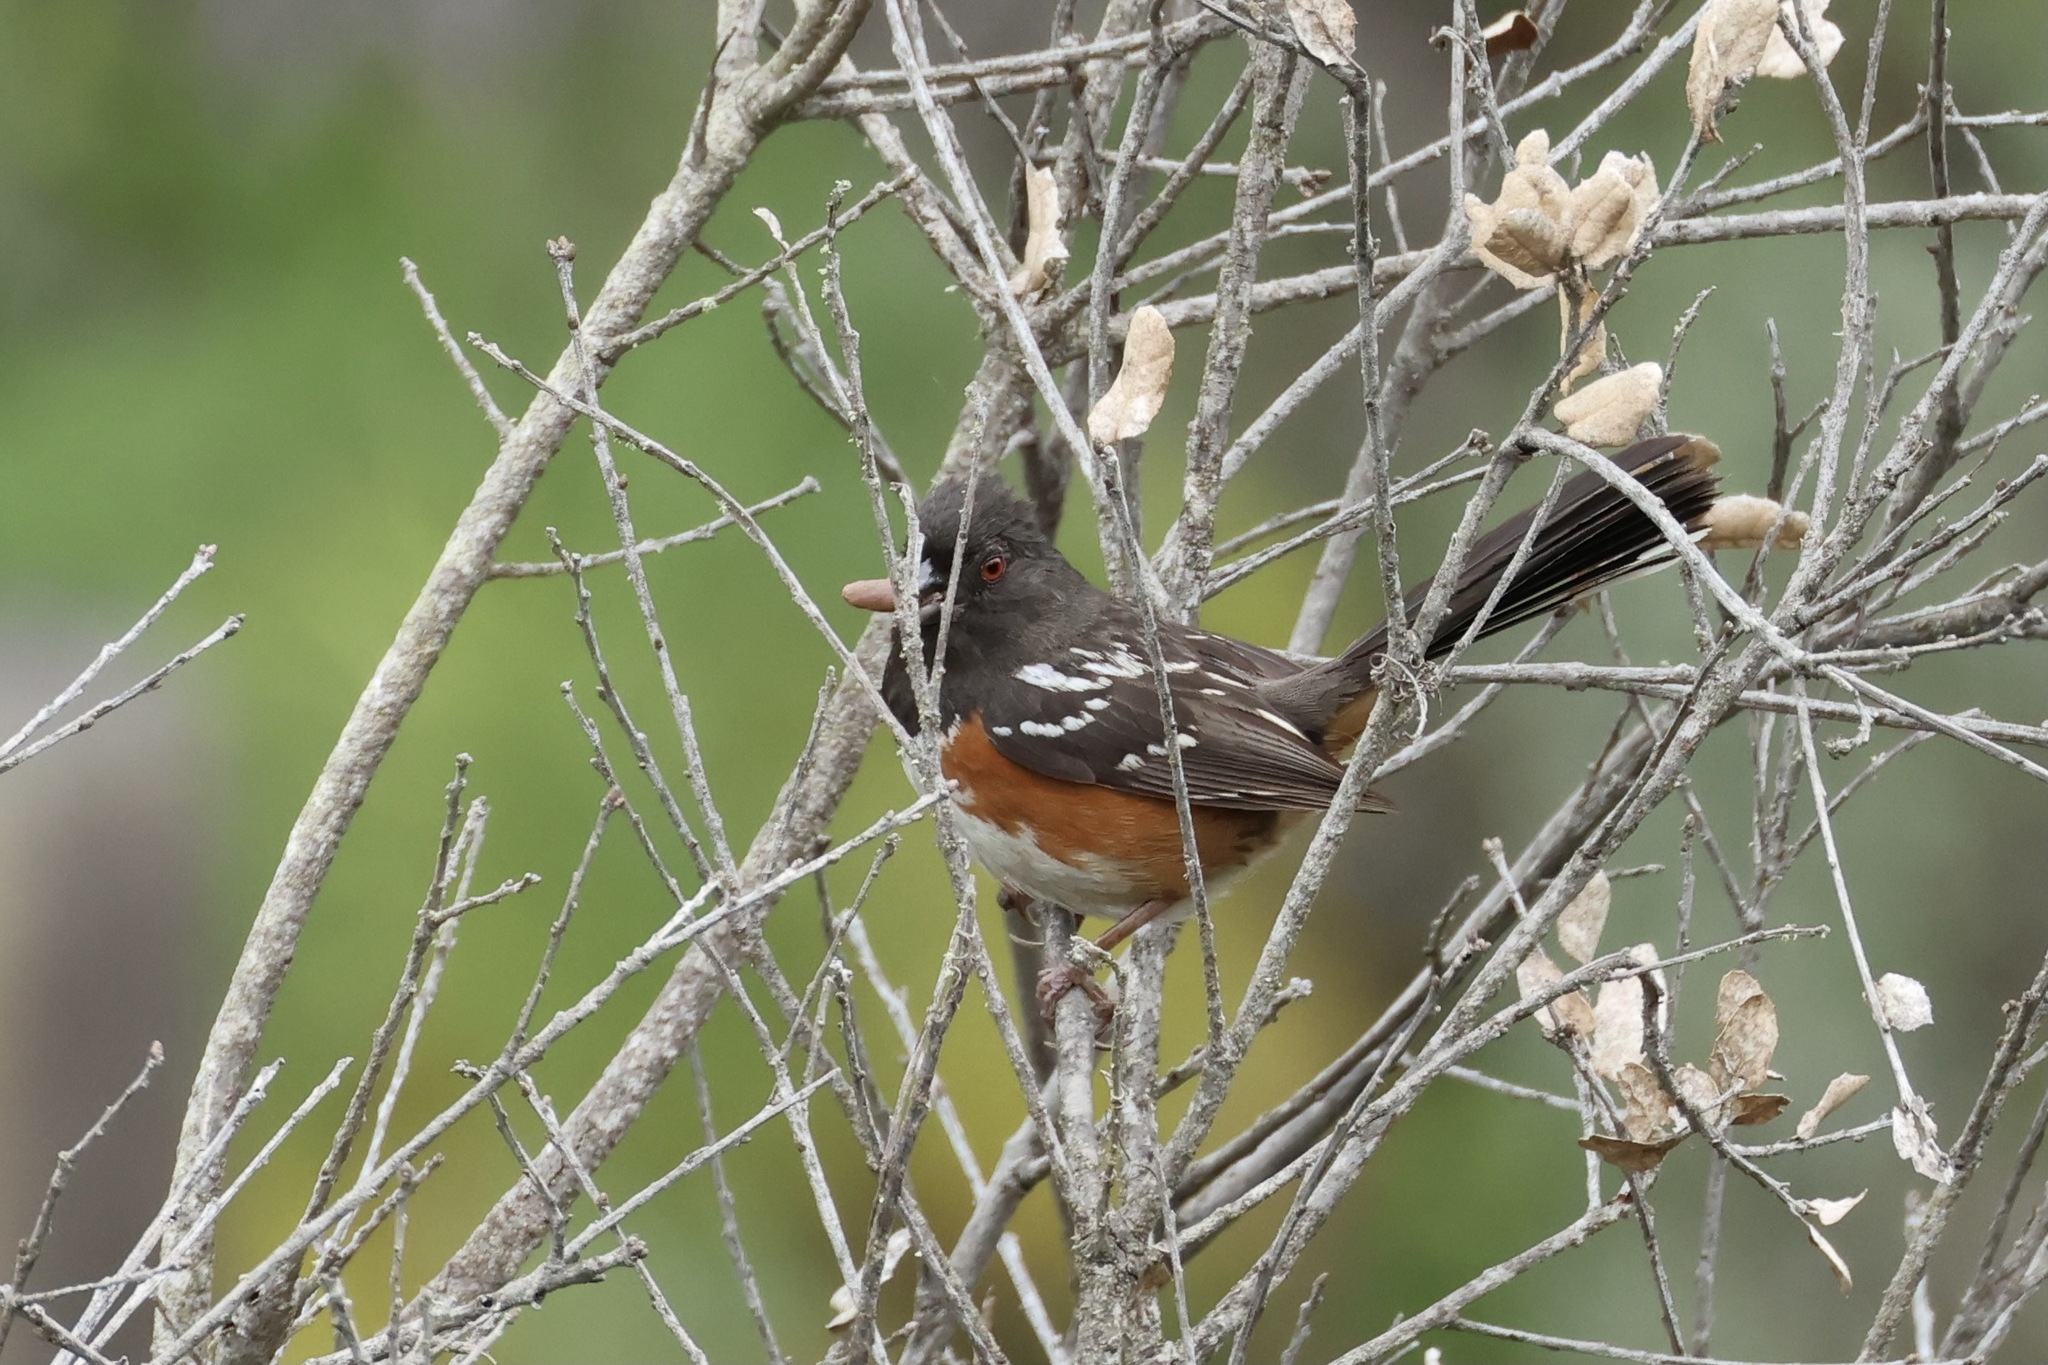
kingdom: Animalia
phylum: Chordata
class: Aves
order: Passeriformes
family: Passerellidae
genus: Pipilo
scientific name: Pipilo maculatus
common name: Spotted towhee
